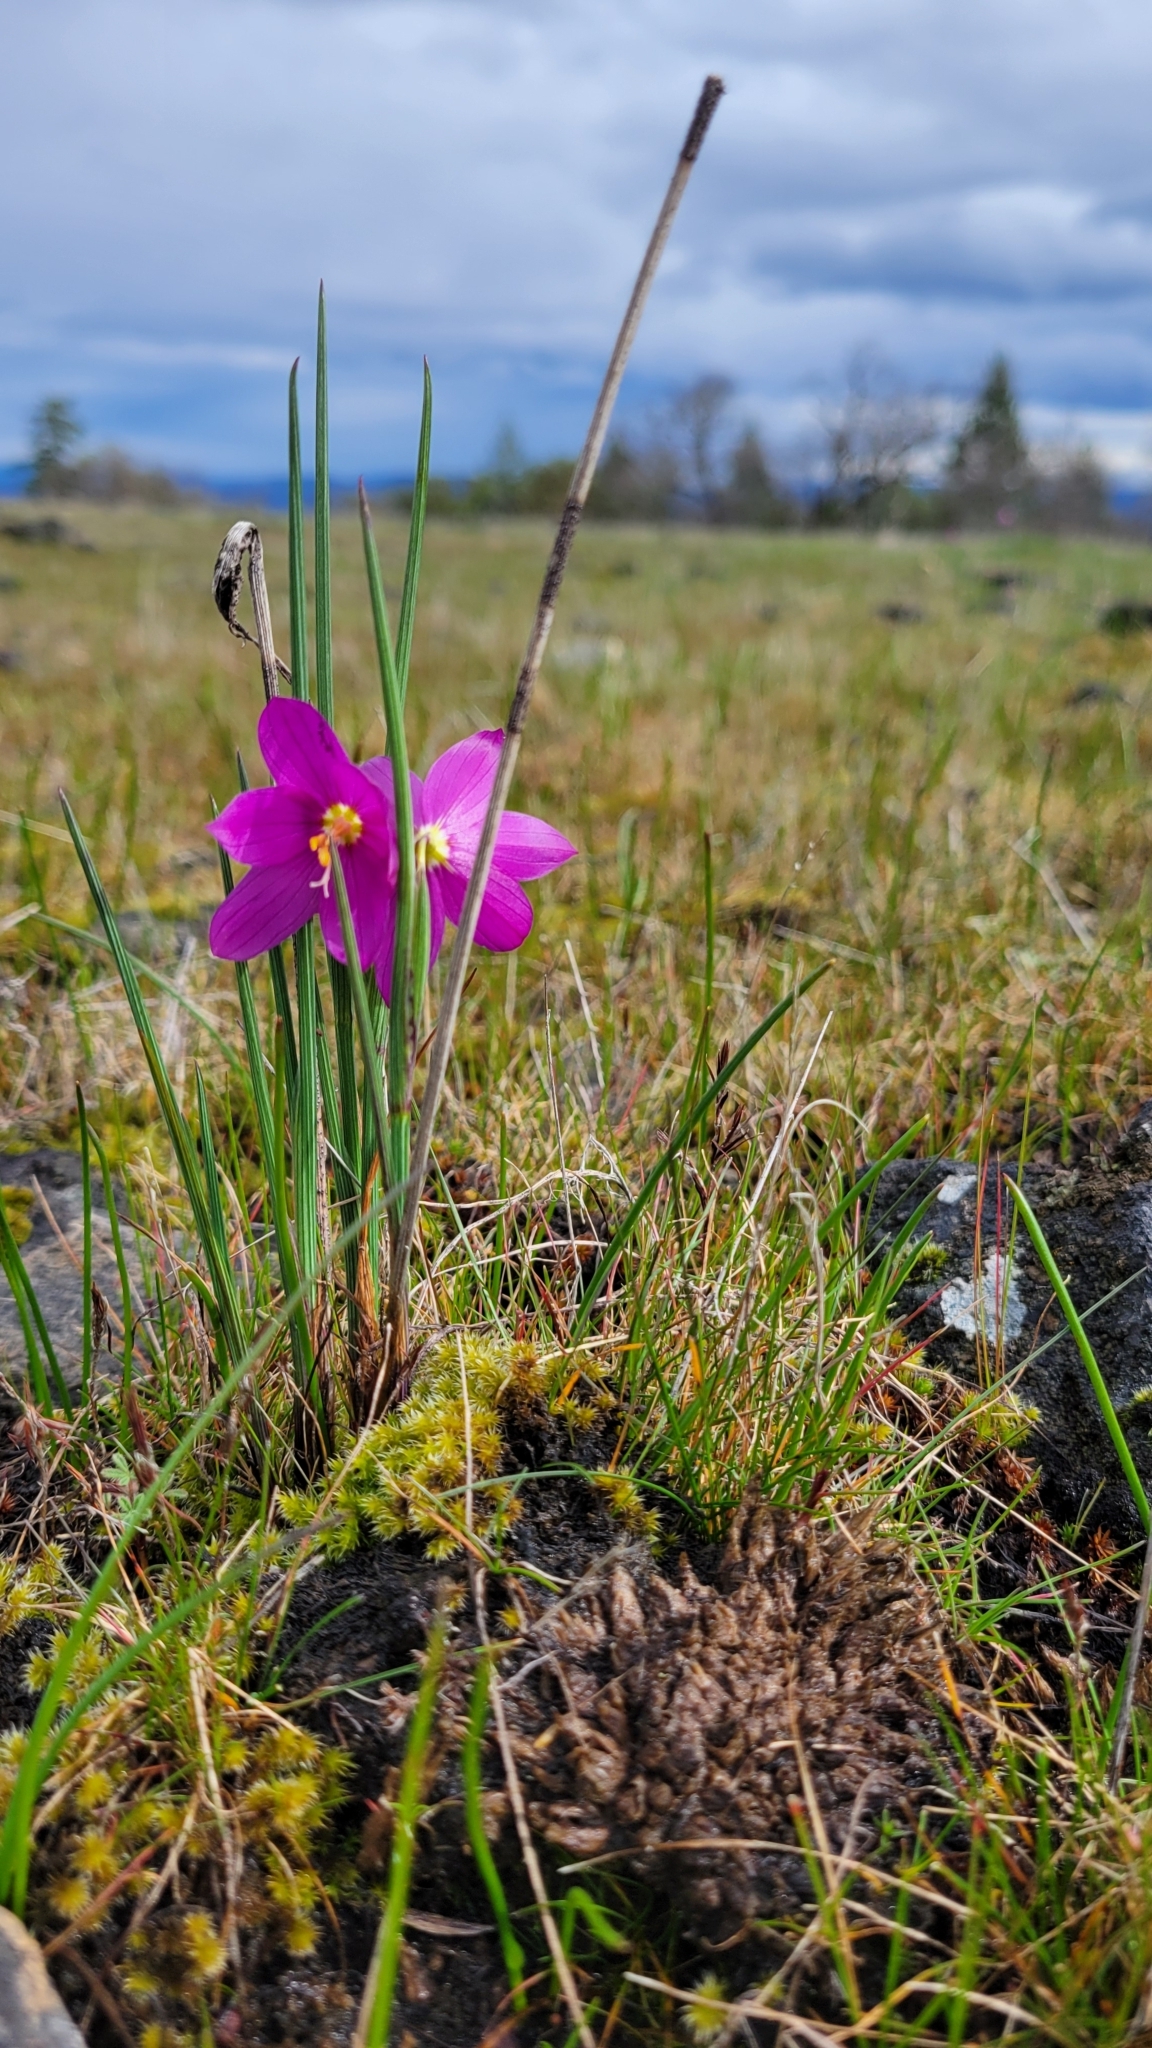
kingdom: Plantae
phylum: Tracheophyta
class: Liliopsida
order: Asparagales
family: Iridaceae
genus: Olsynium
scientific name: Olsynium douglasii
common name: Douglas' grasswidow
